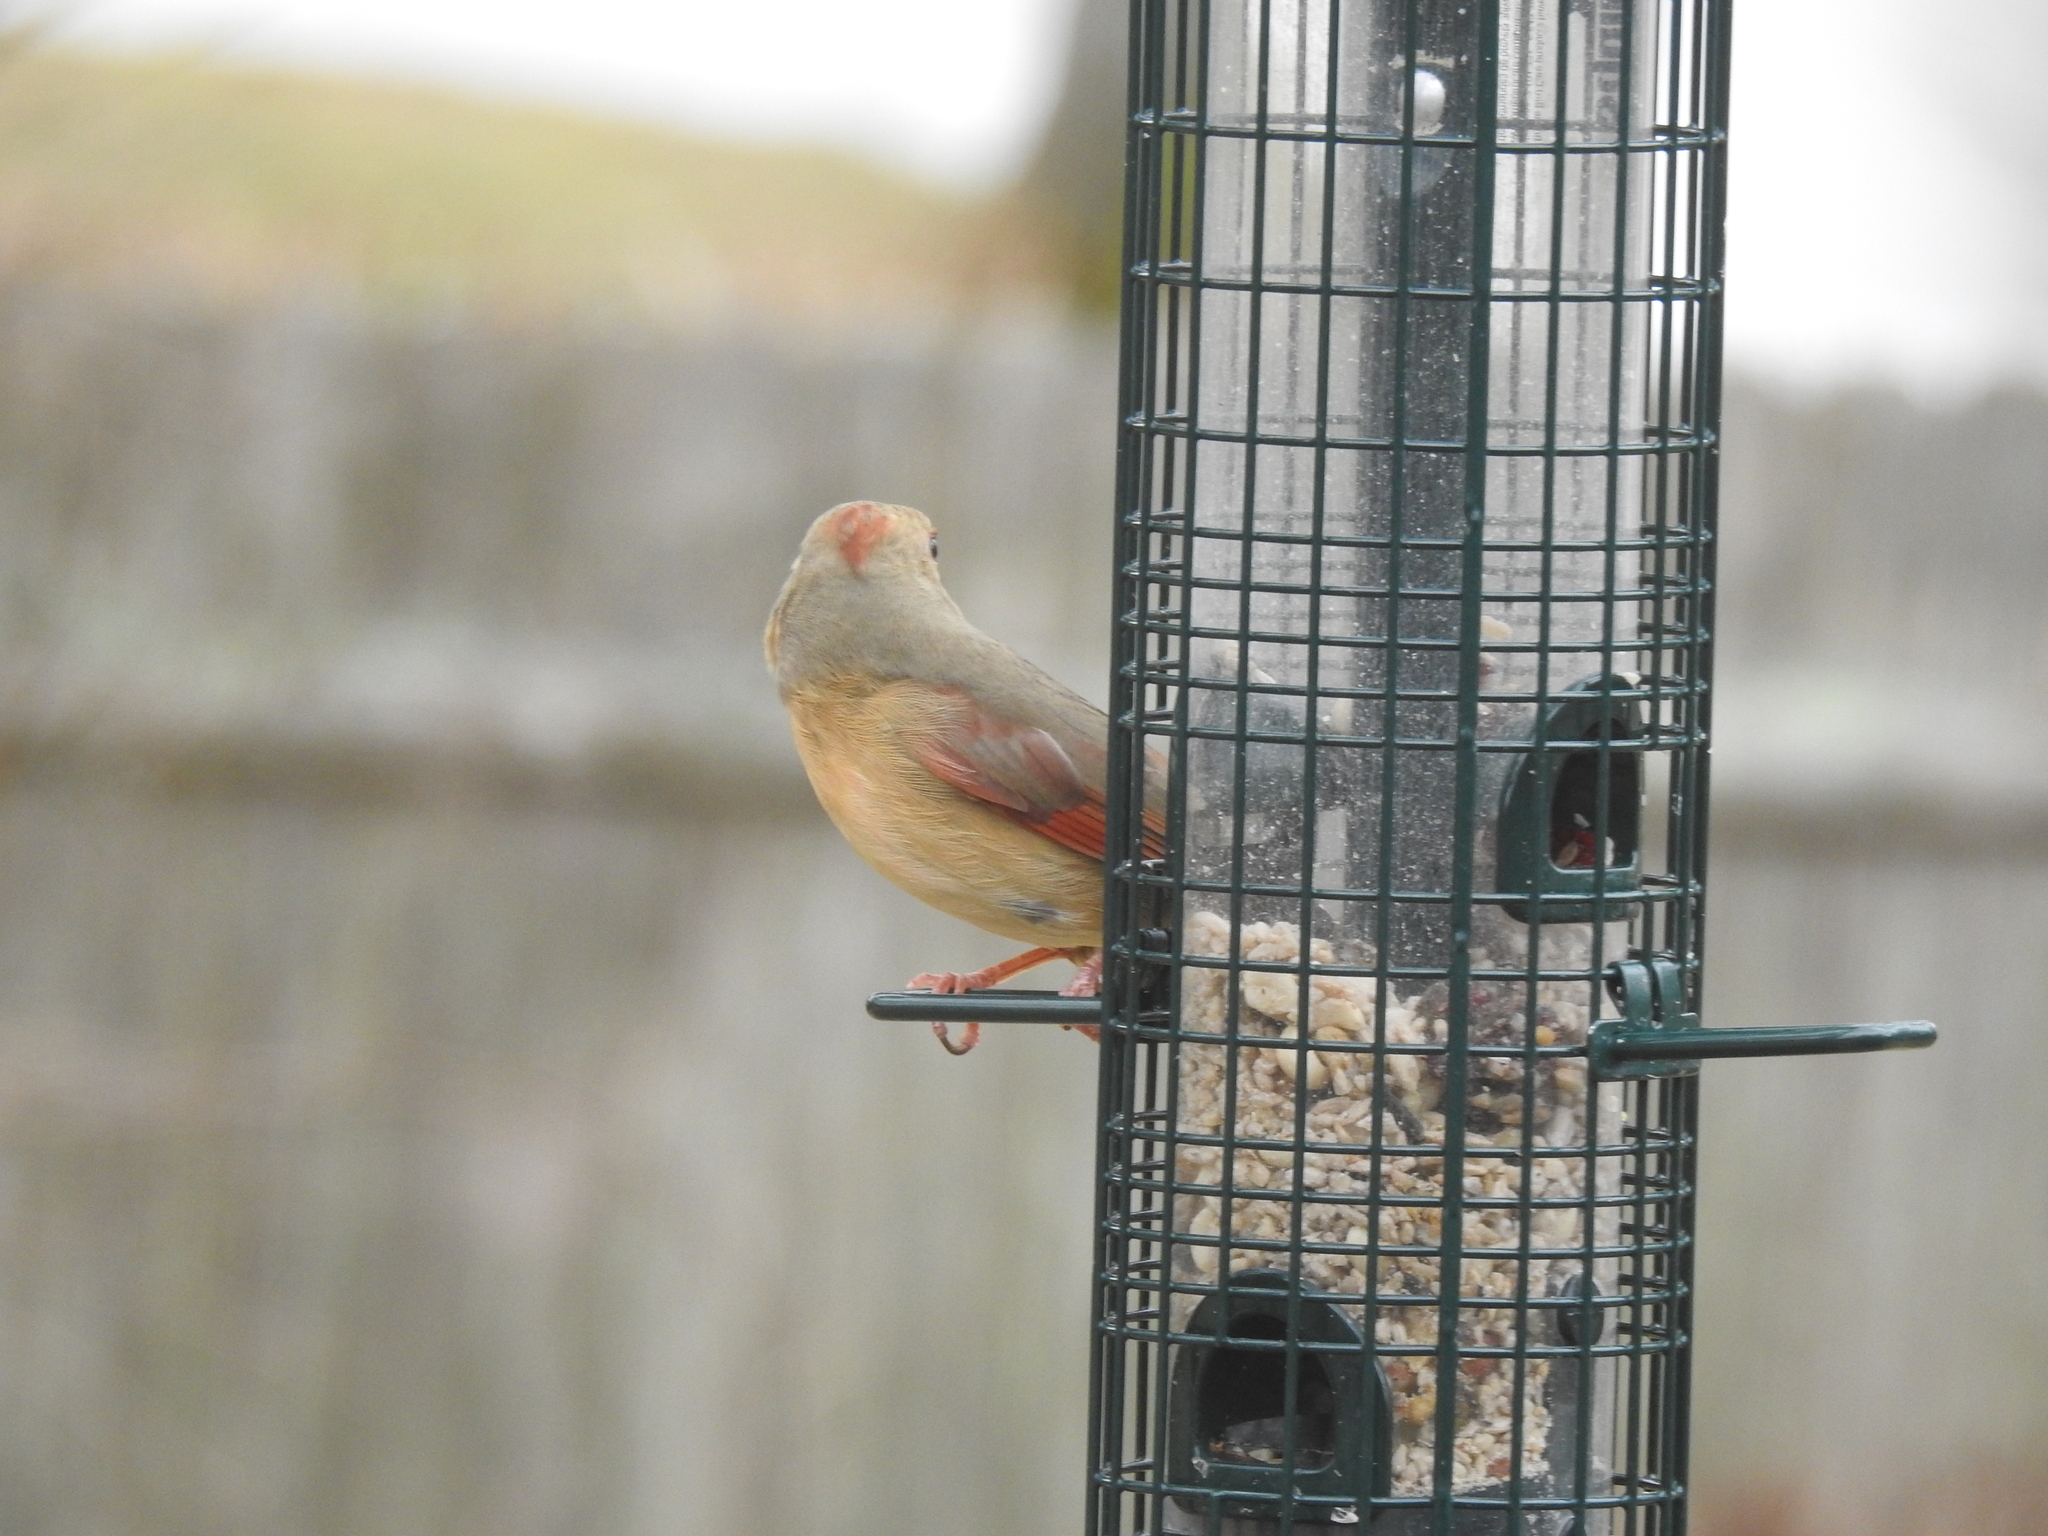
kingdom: Animalia
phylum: Chordata
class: Aves
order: Passeriformes
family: Cardinalidae
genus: Cardinalis
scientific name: Cardinalis cardinalis
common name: Northern cardinal
